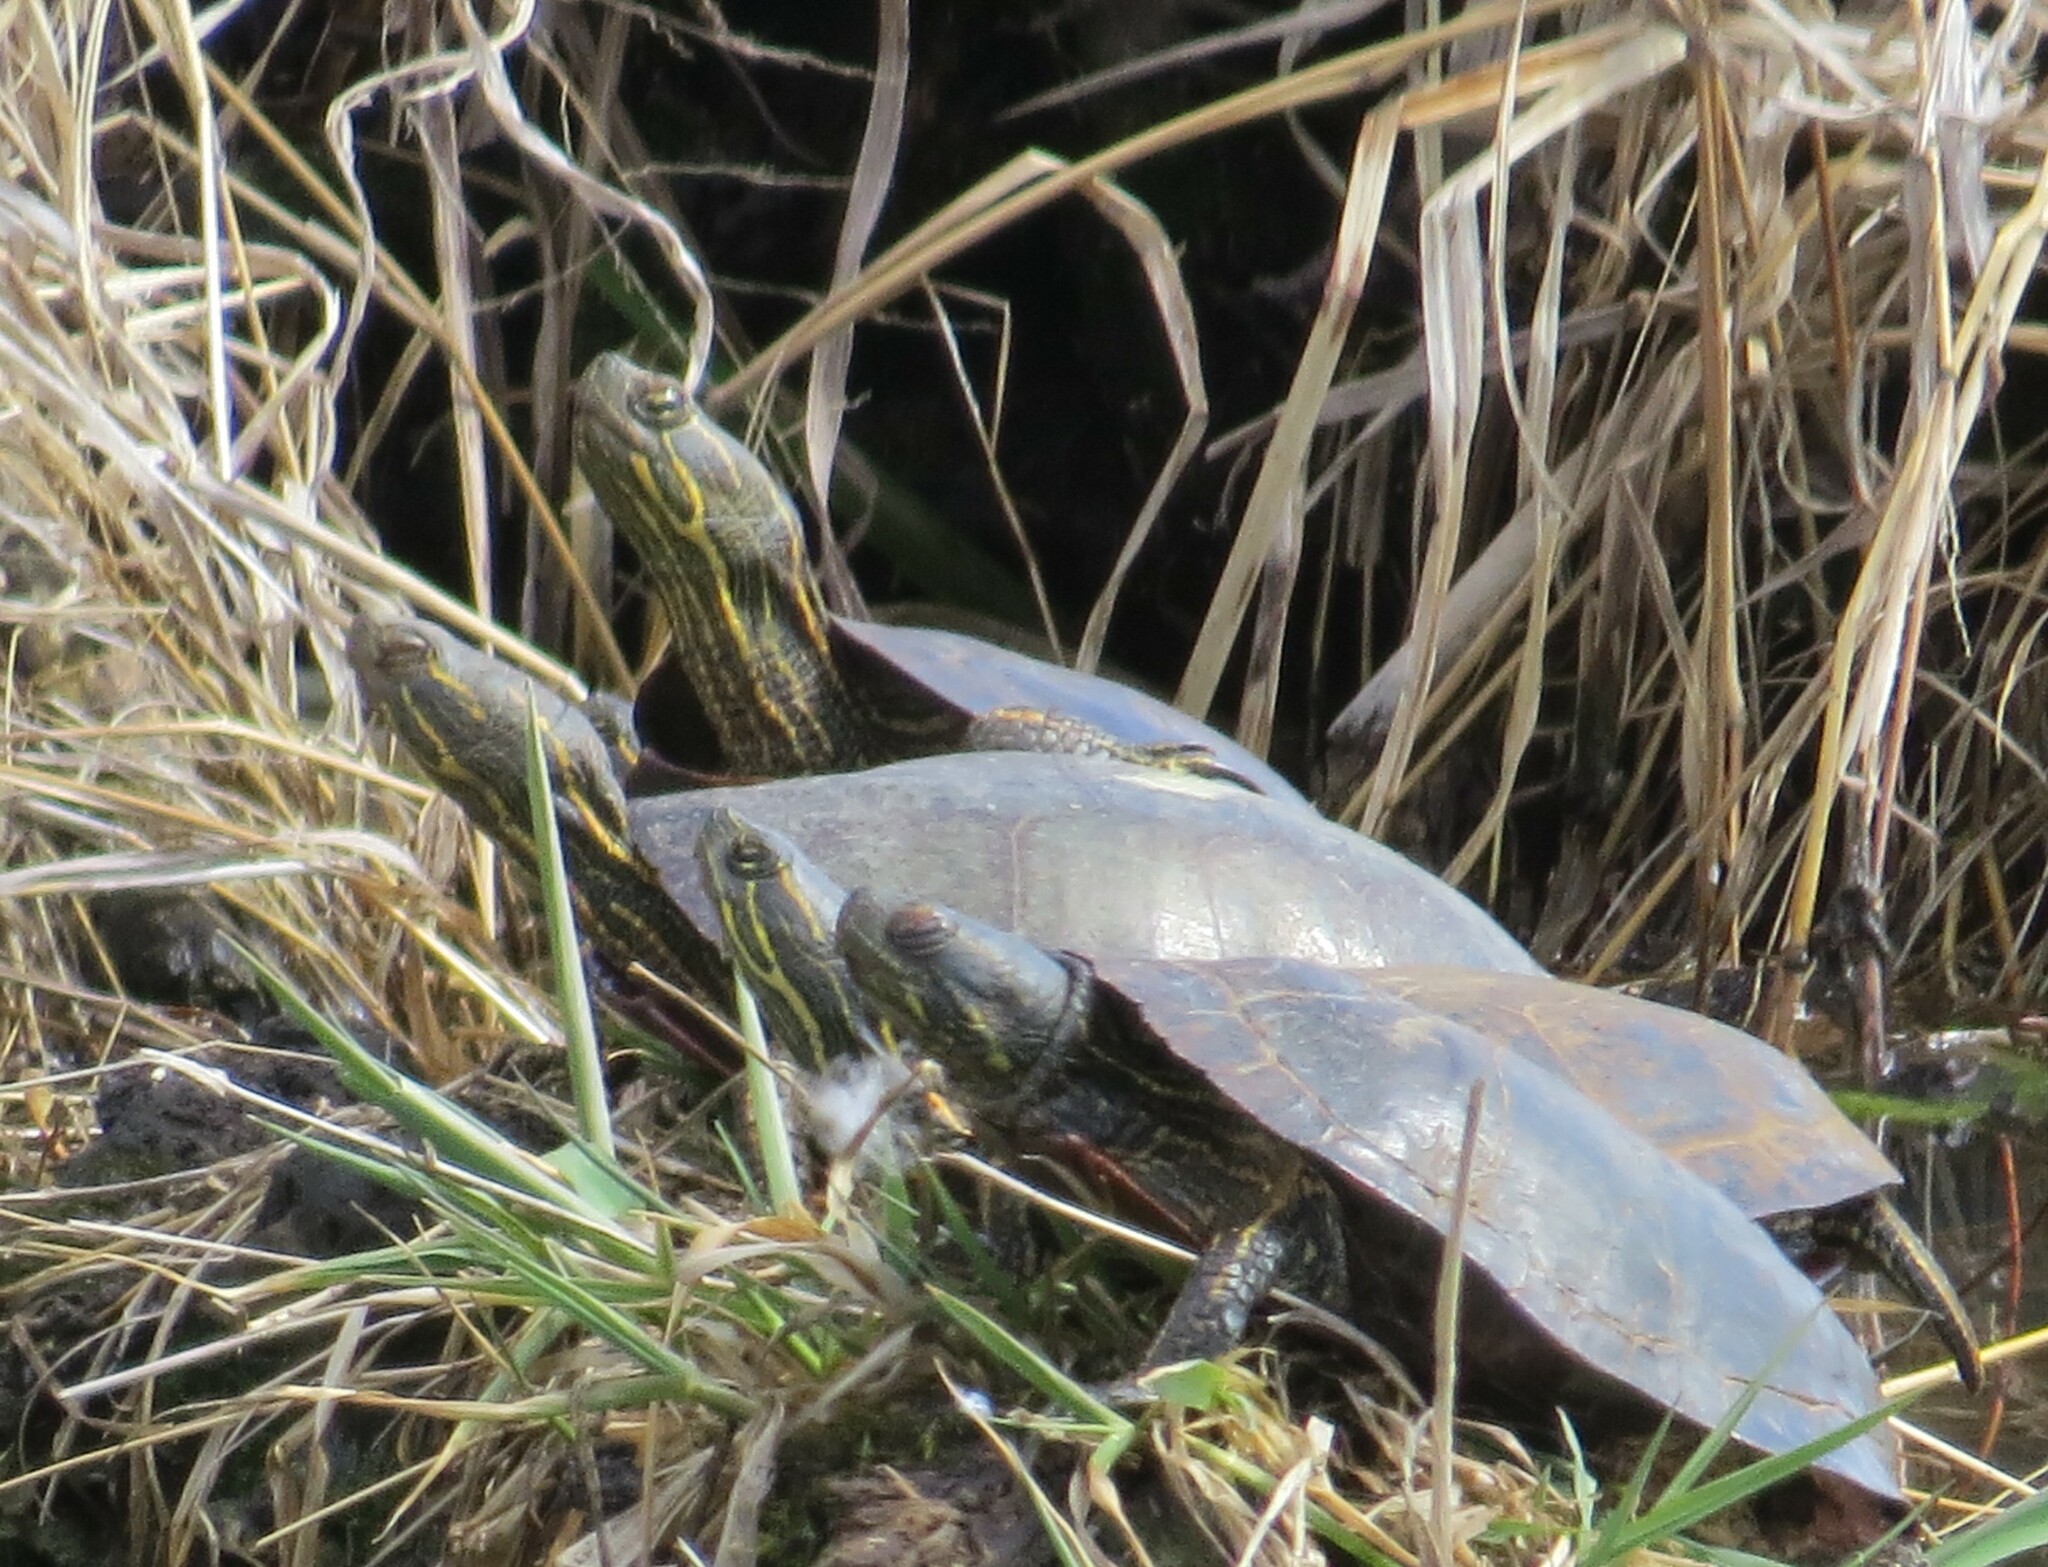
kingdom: Animalia
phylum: Chordata
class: Testudines
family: Emydidae
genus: Chrysemys
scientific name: Chrysemys picta
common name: Painted turtle
